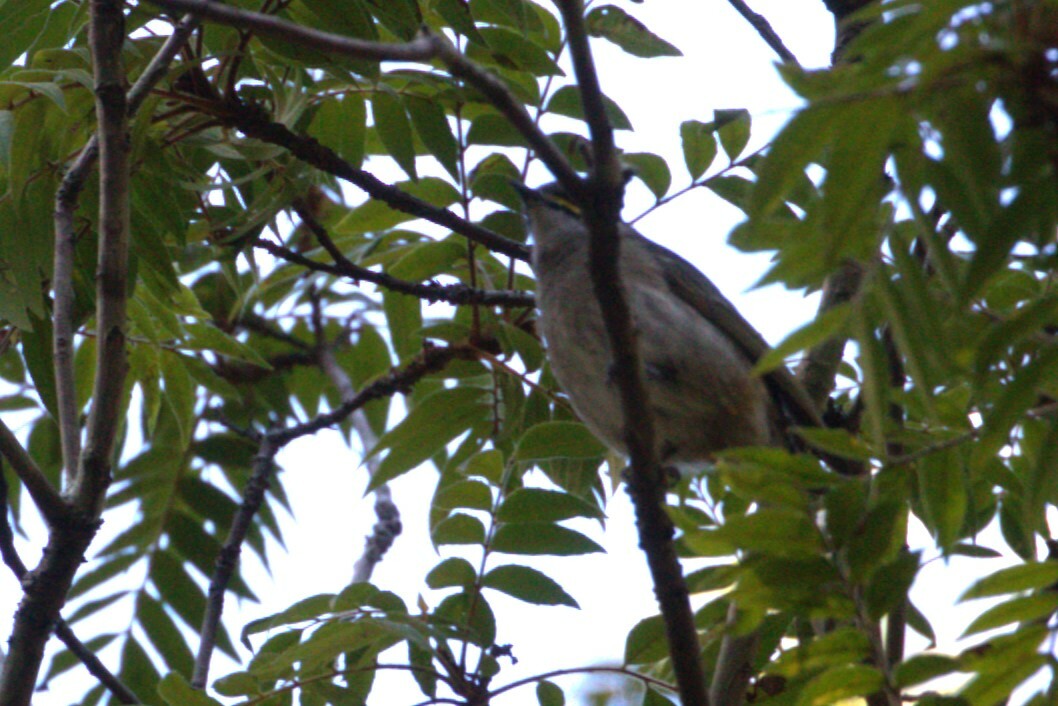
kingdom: Animalia
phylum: Chordata
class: Aves
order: Passeriformes
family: Meliphagidae
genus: Caligavis
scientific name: Caligavis chrysops
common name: Yellow-faced honeyeater
